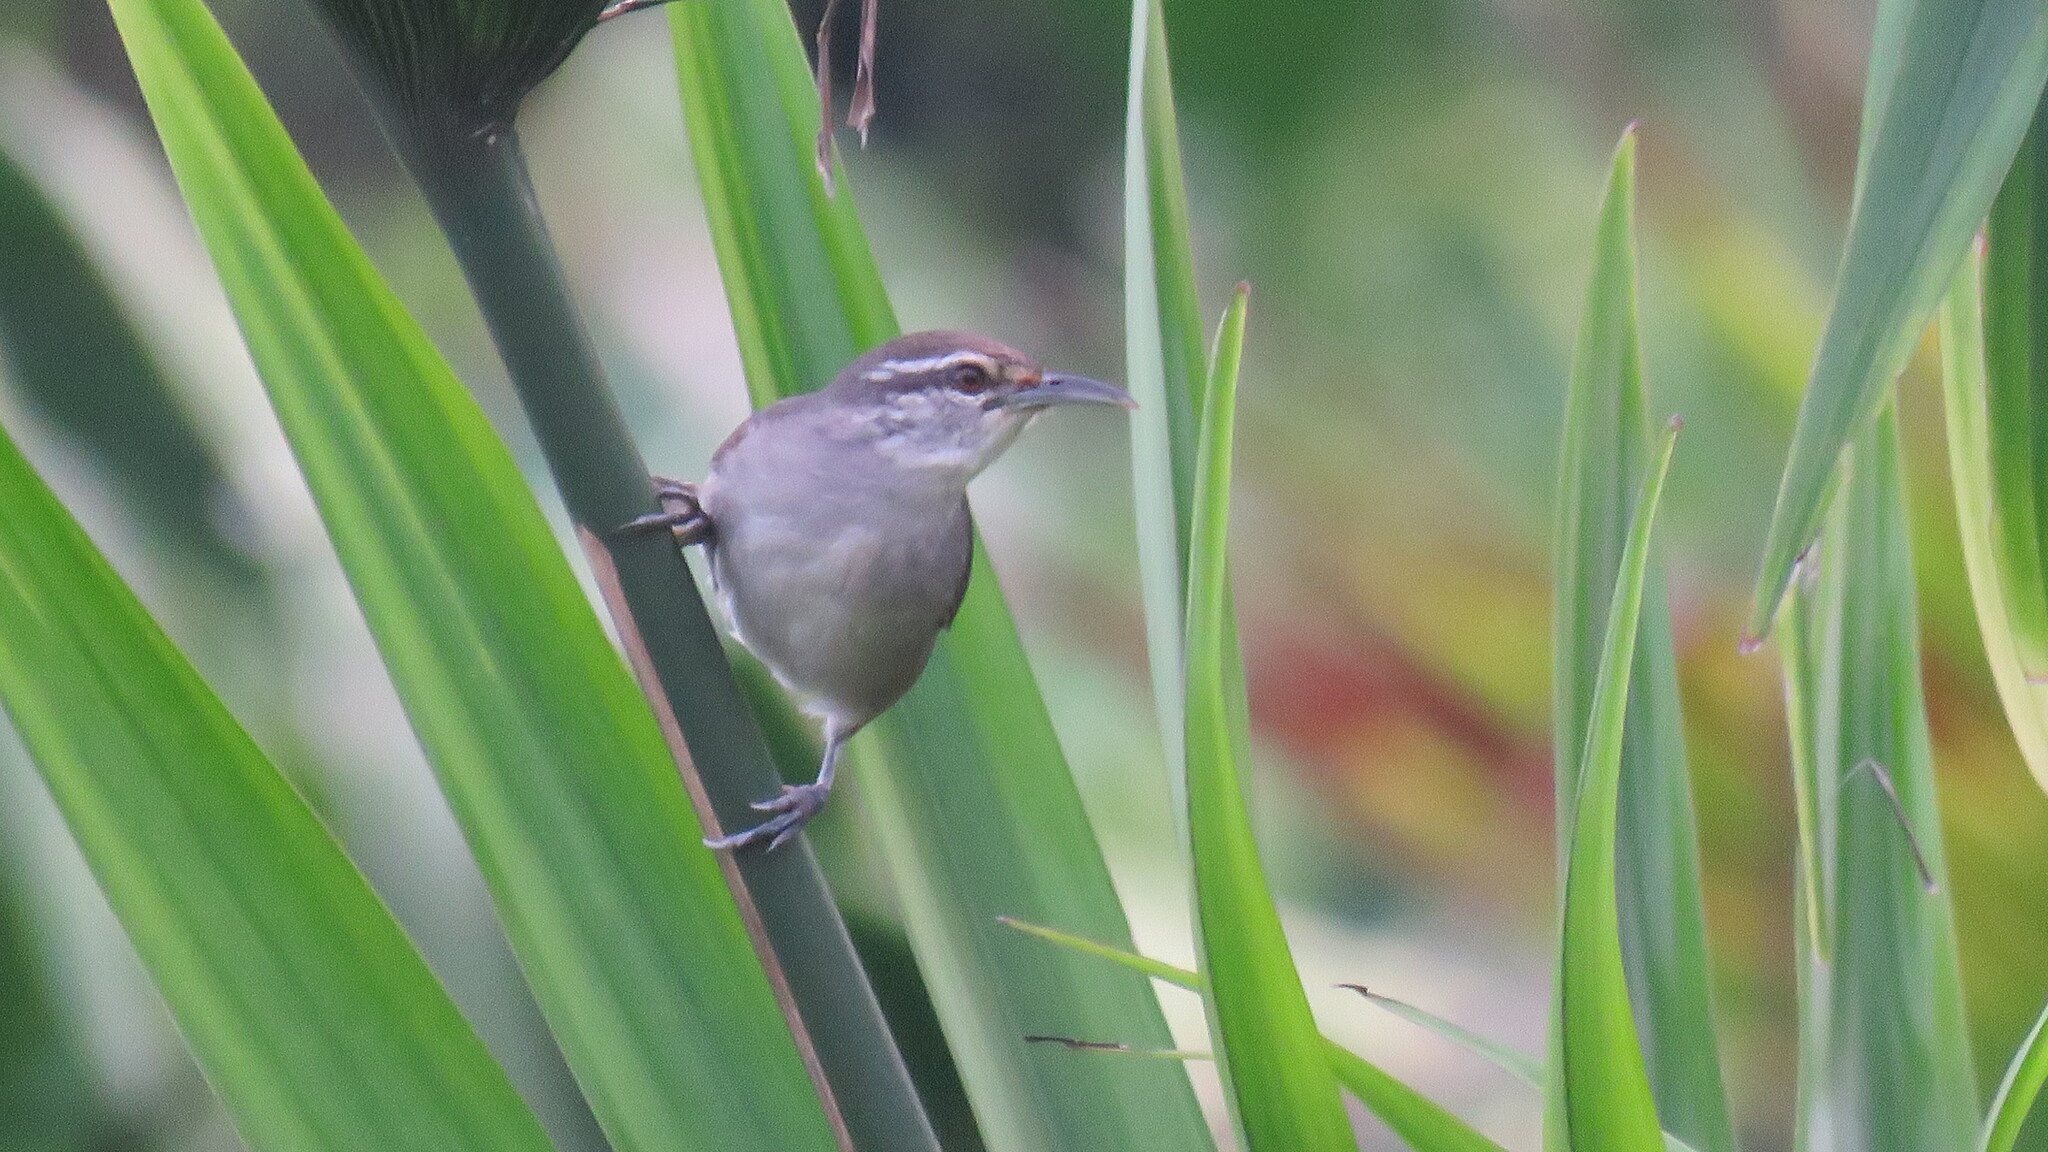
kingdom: Animalia
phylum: Chordata
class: Aves
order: Passeriformes
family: Troglodytidae
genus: Cantorchilus
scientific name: Cantorchilus modestus
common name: Cabanis's wren
